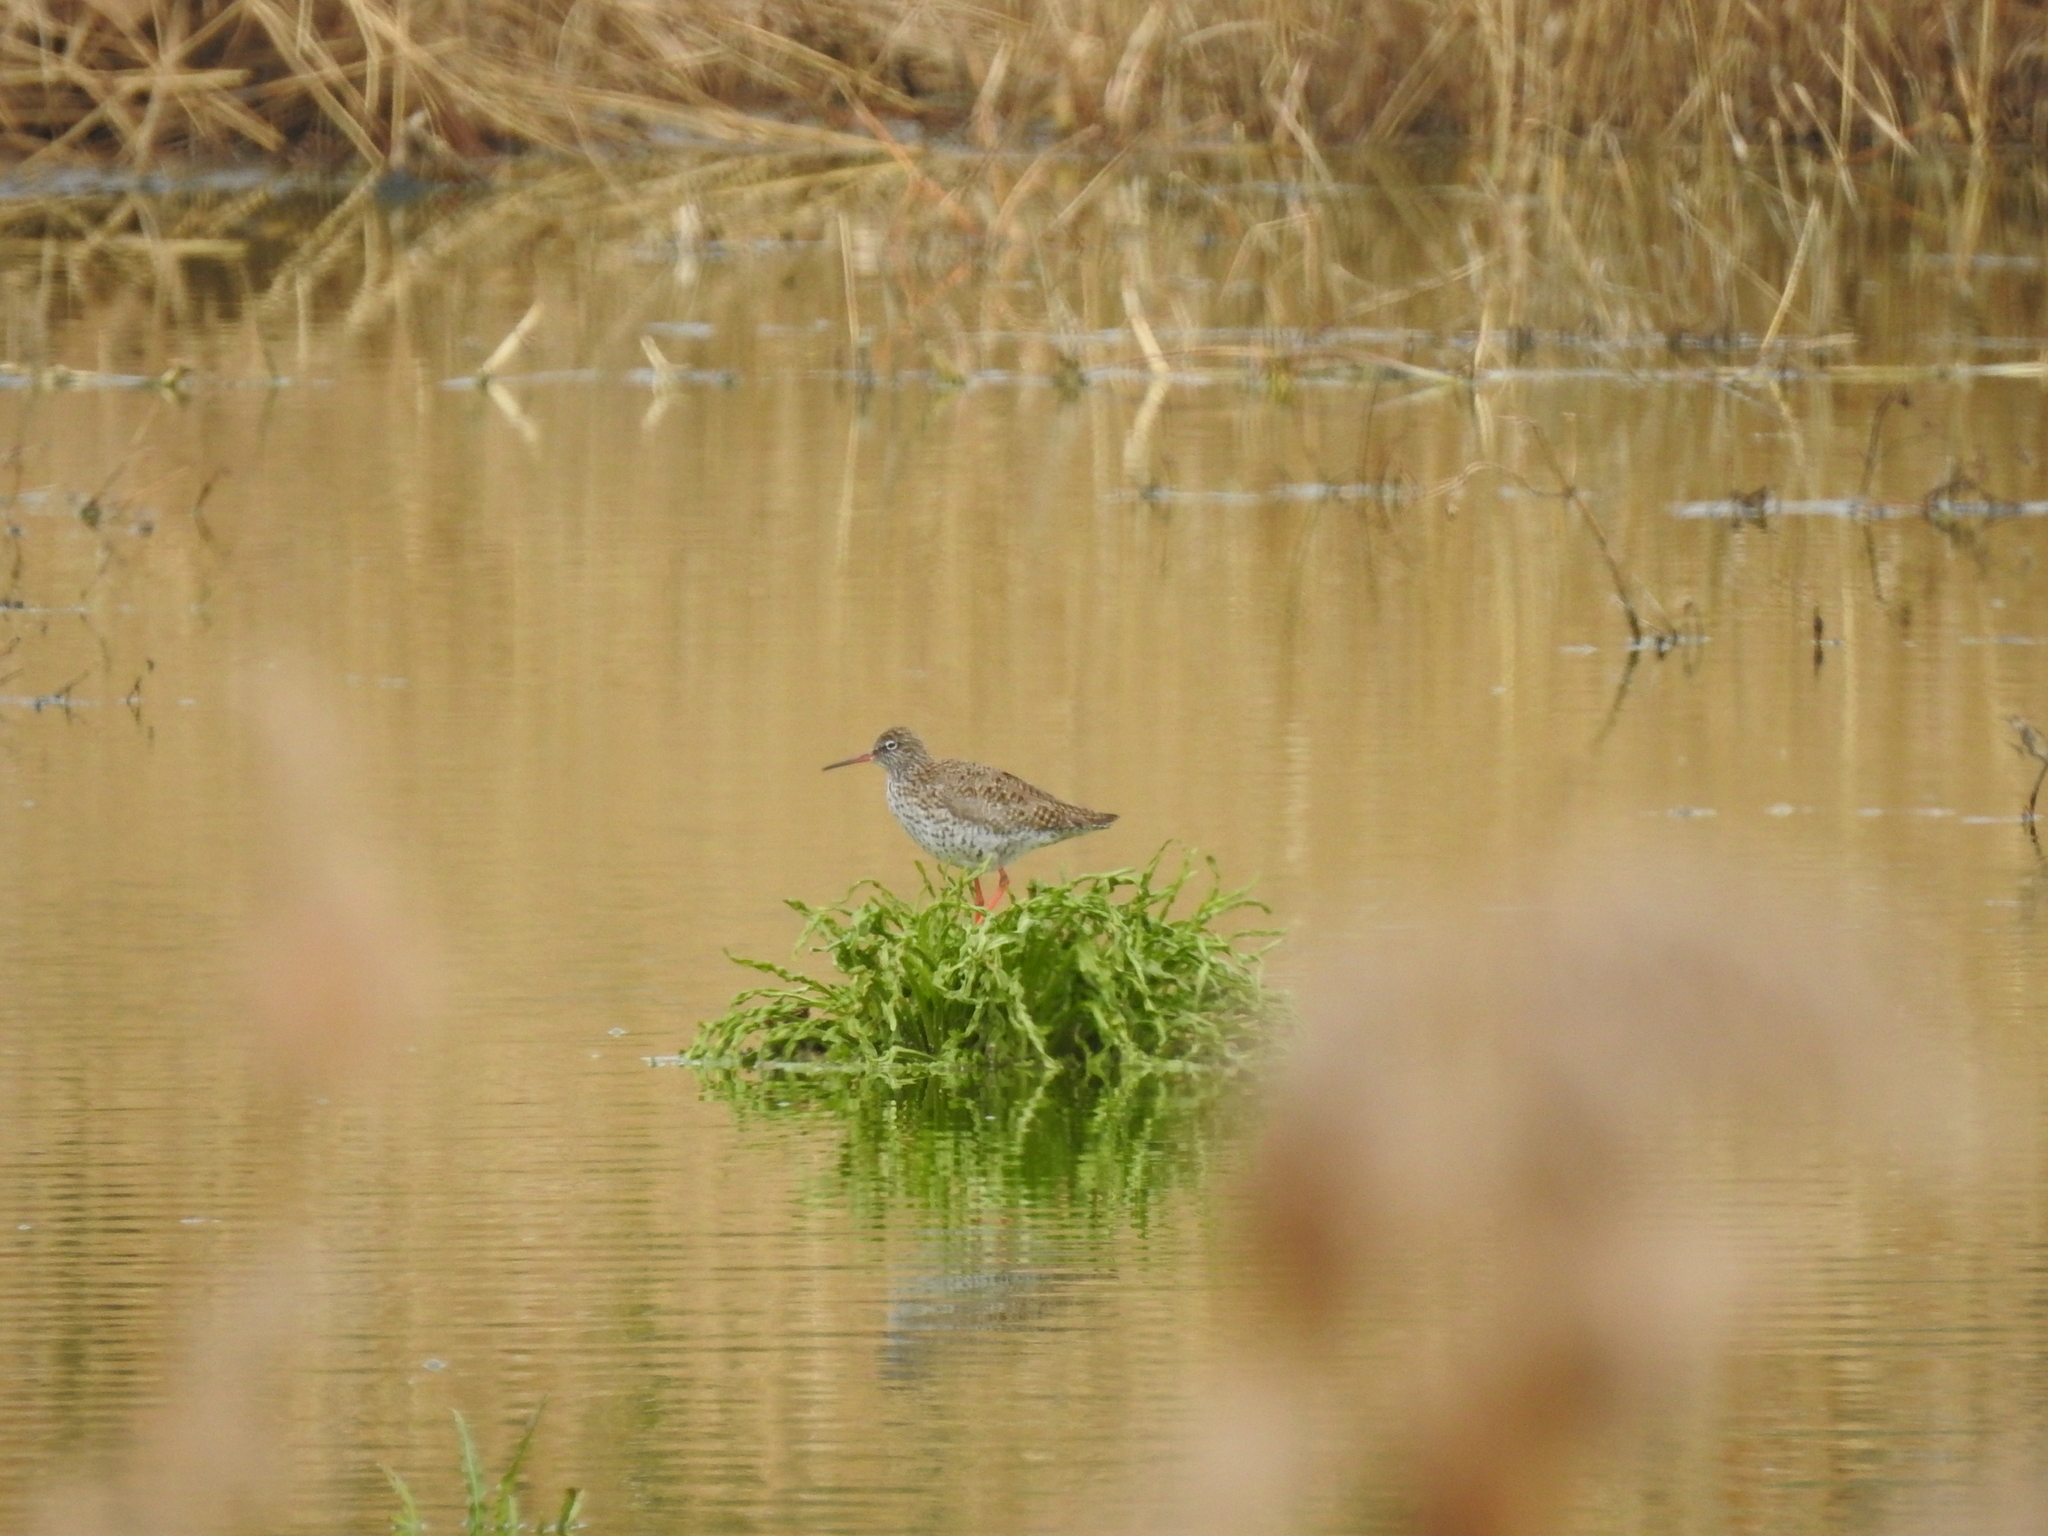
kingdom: Animalia
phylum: Chordata
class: Aves
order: Charadriiformes
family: Scolopacidae
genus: Tringa
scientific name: Tringa totanus
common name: Common redshank
